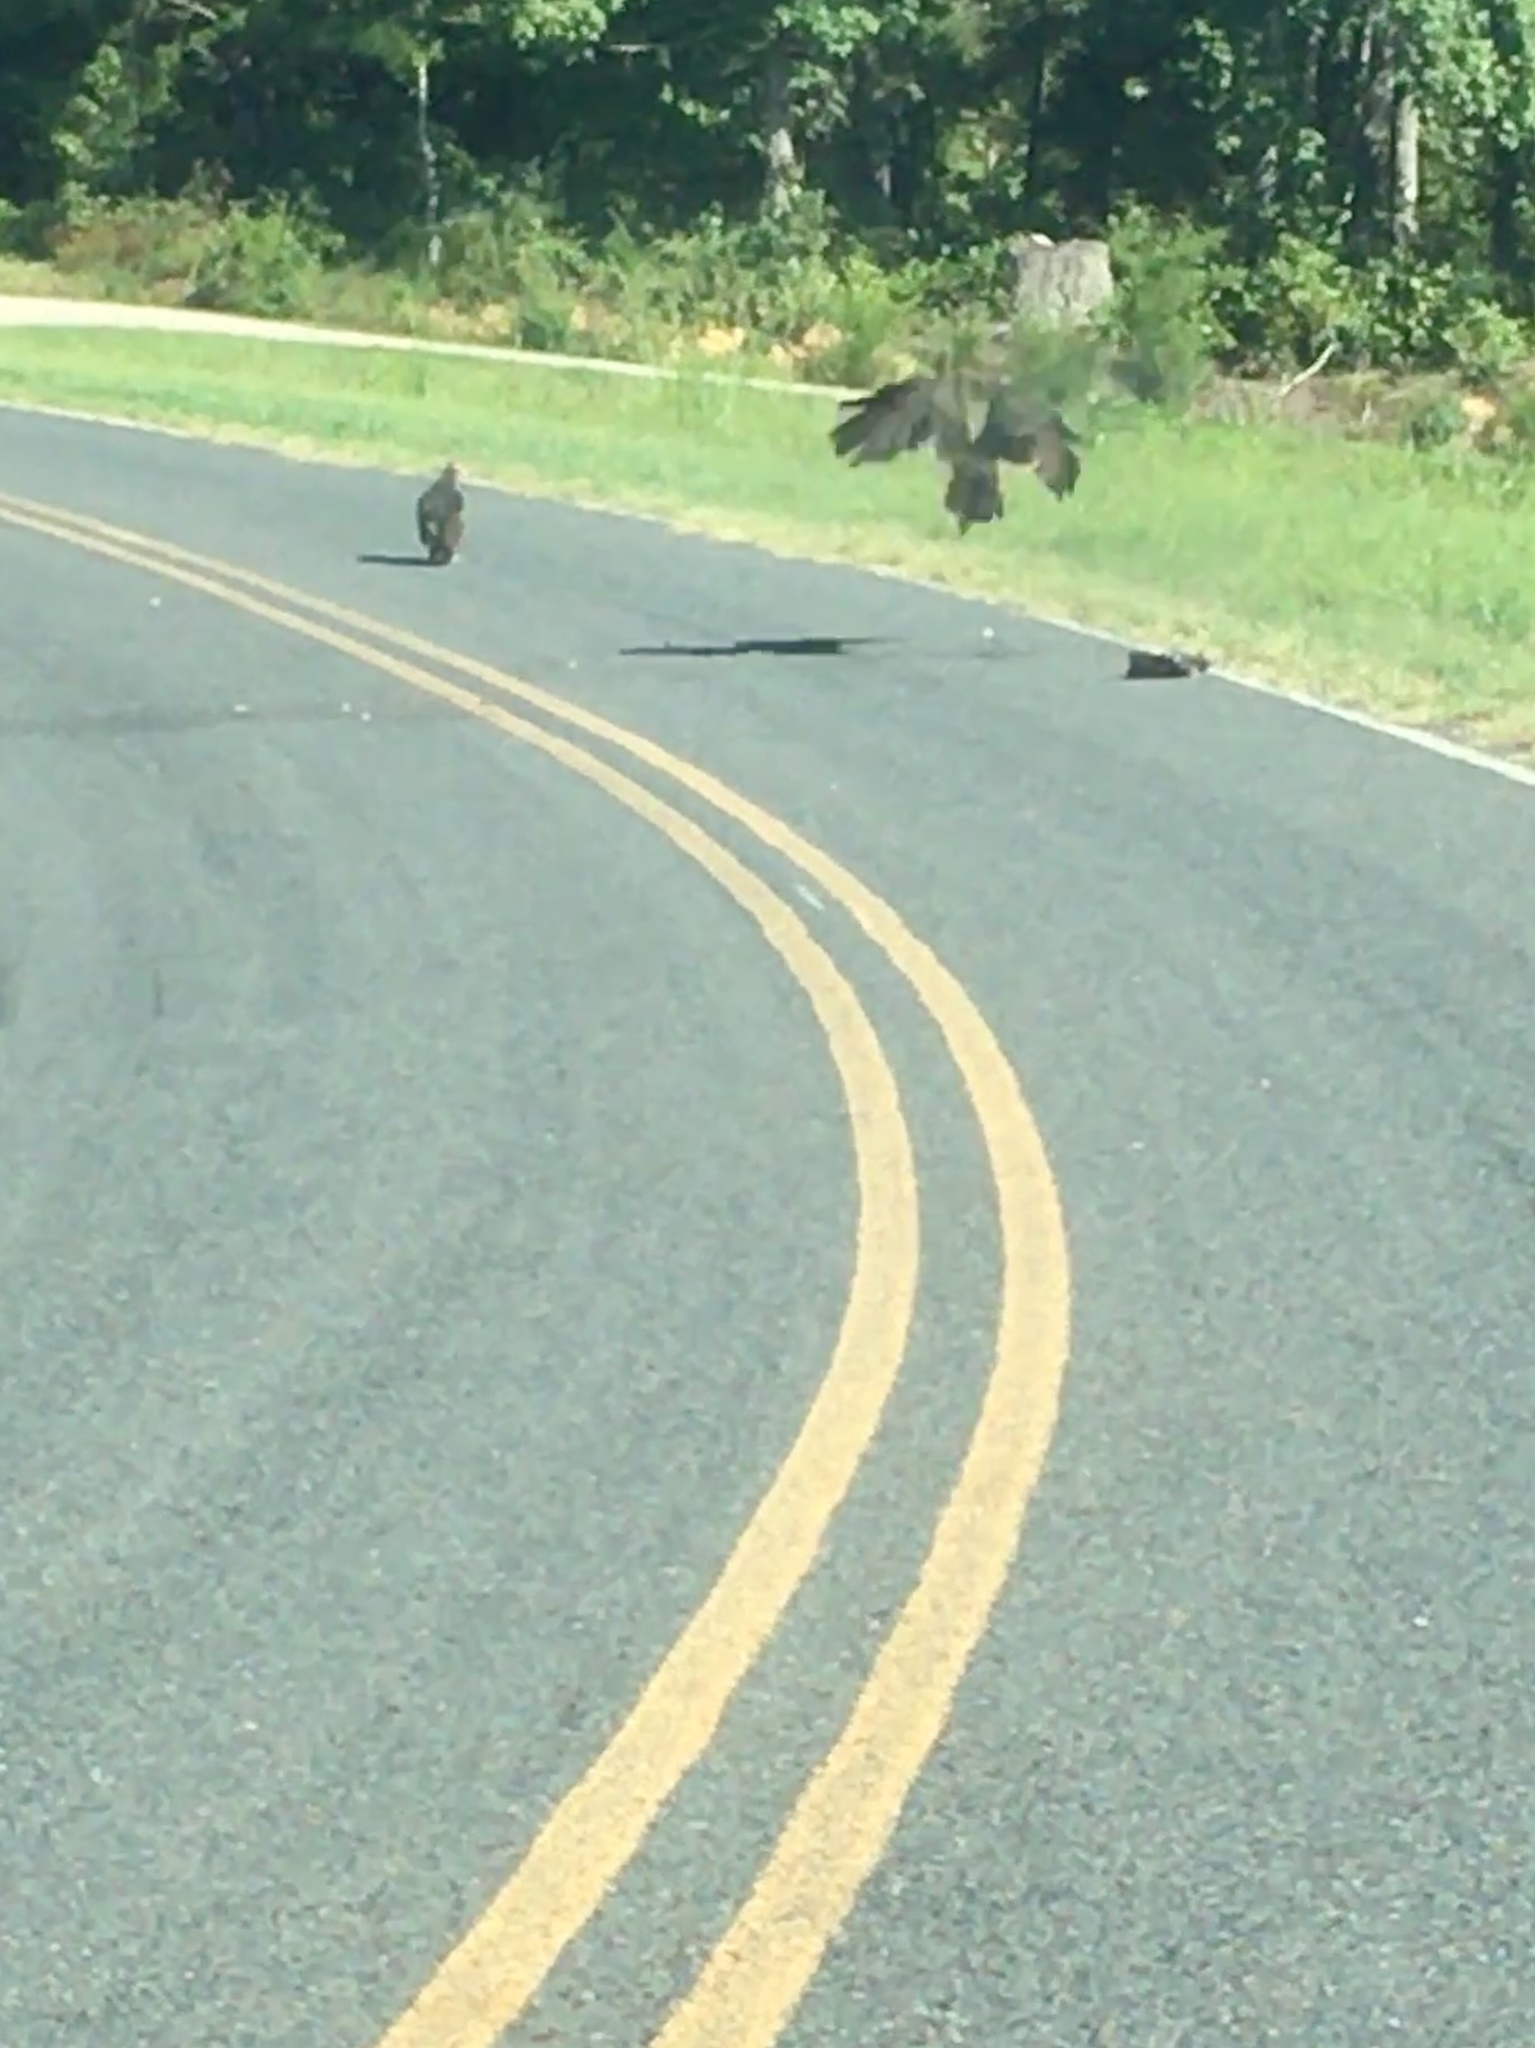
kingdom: Animalia
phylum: Chordata
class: Aves
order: Accipitriformes
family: Cathartidae
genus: Cathartes
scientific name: Cathartes aura
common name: Turkey vulture
